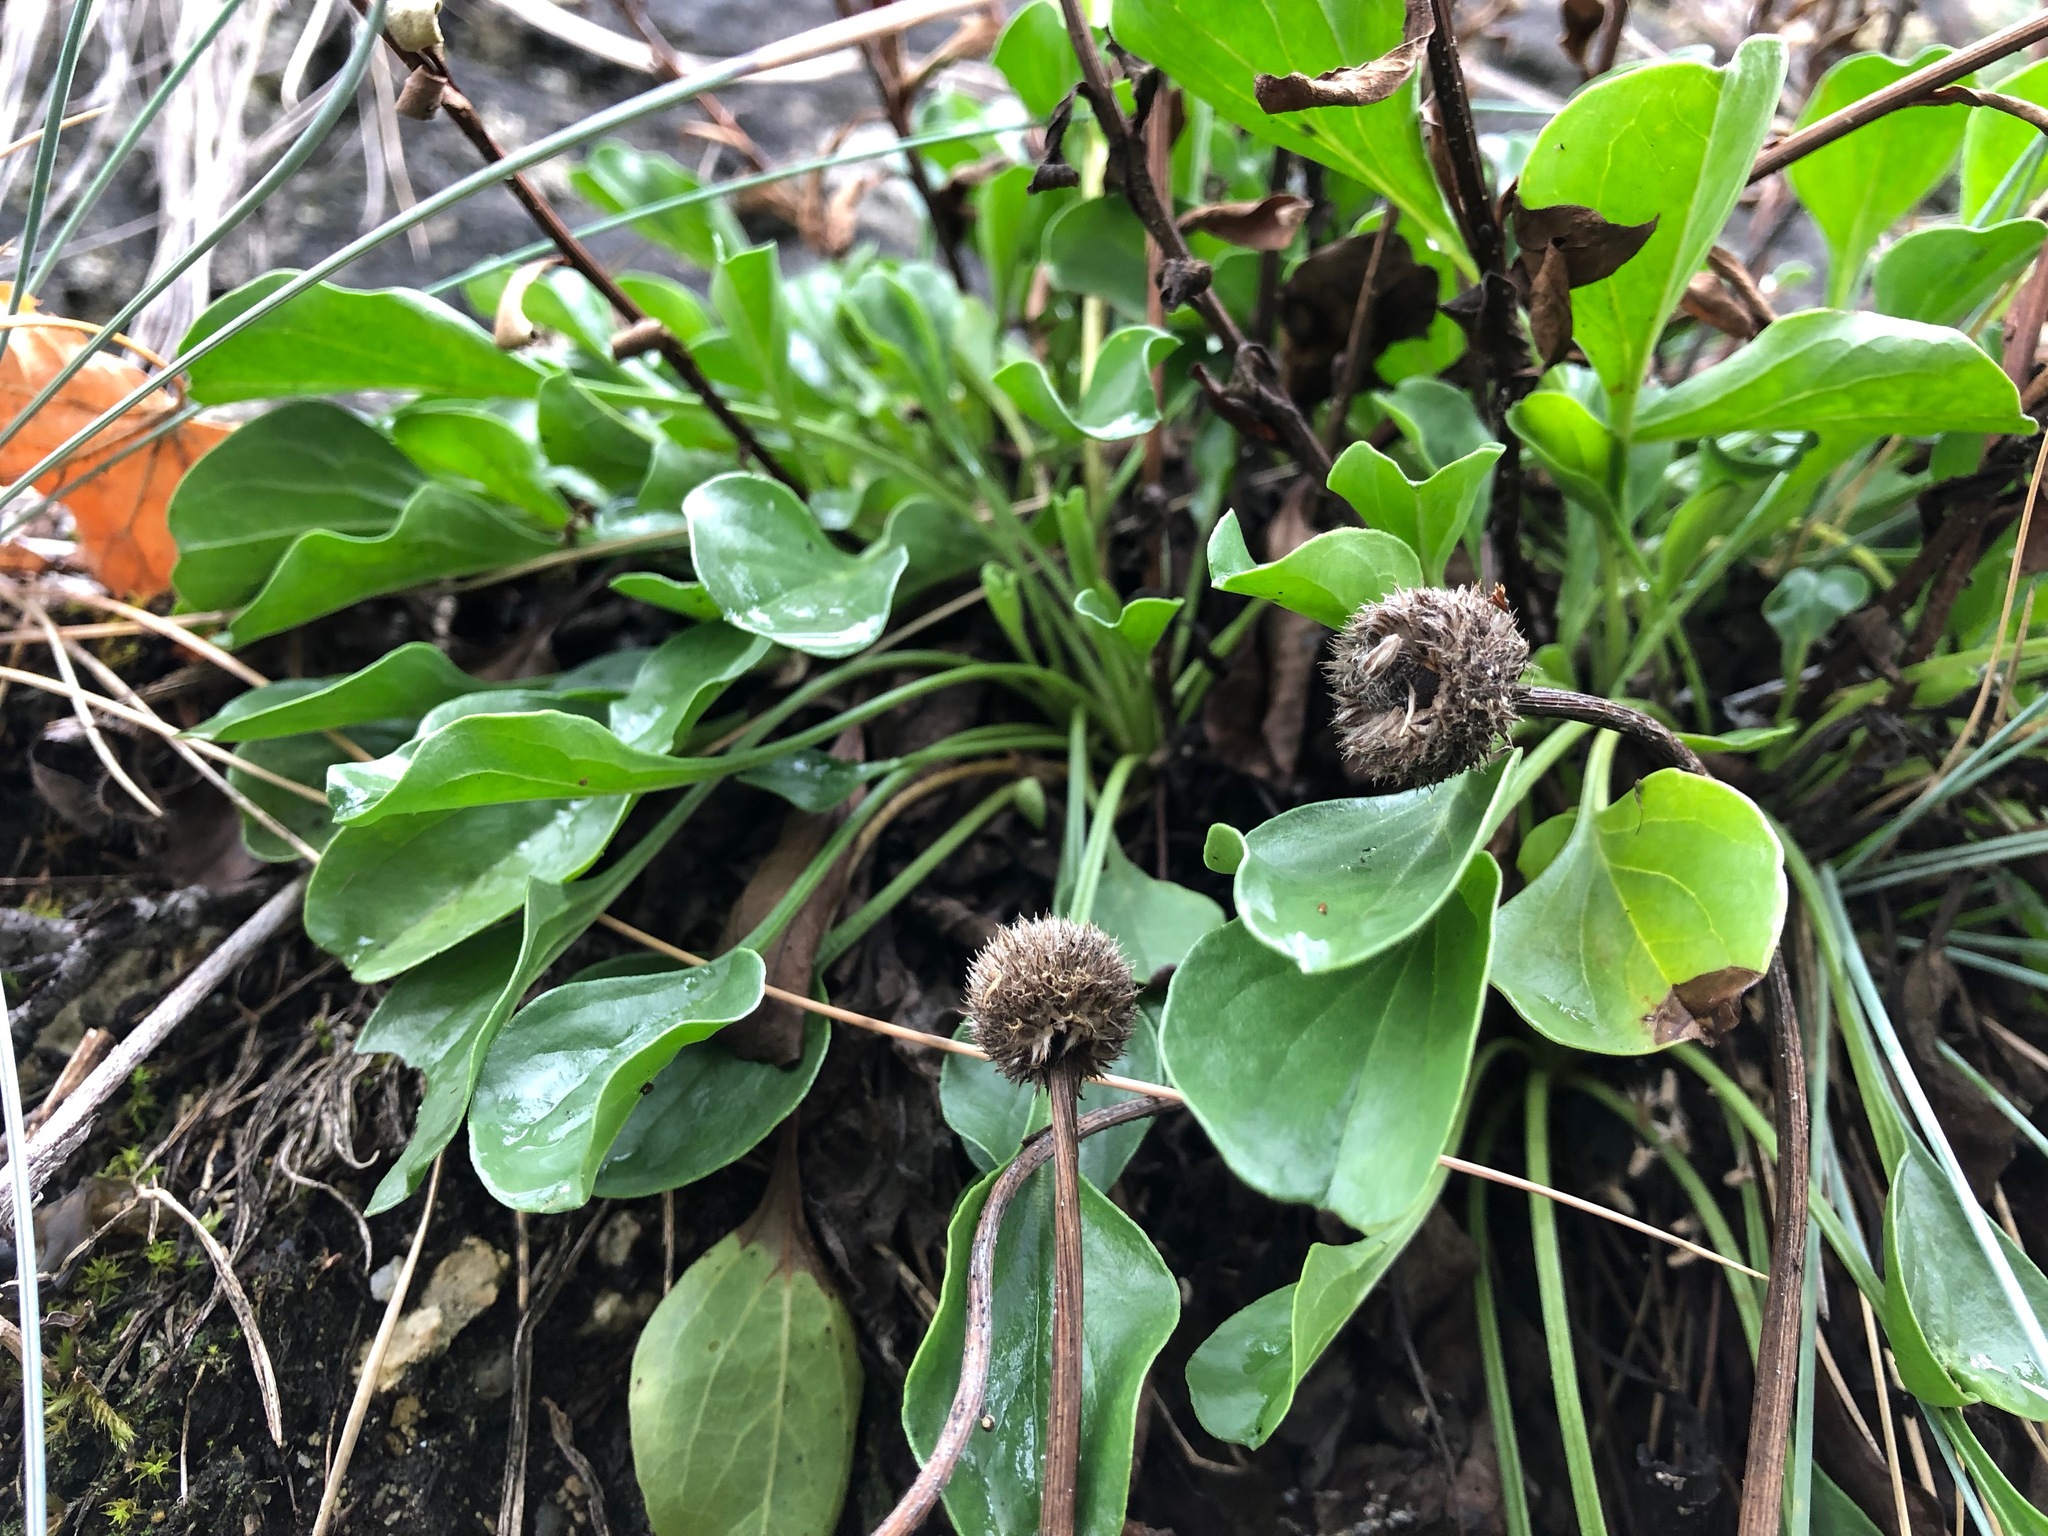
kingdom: Plantae
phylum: Tracheophyta
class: Magnoliopsida
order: Lamiales
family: Plantaginaceae
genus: Globularia
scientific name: Globularia bisnagarica
